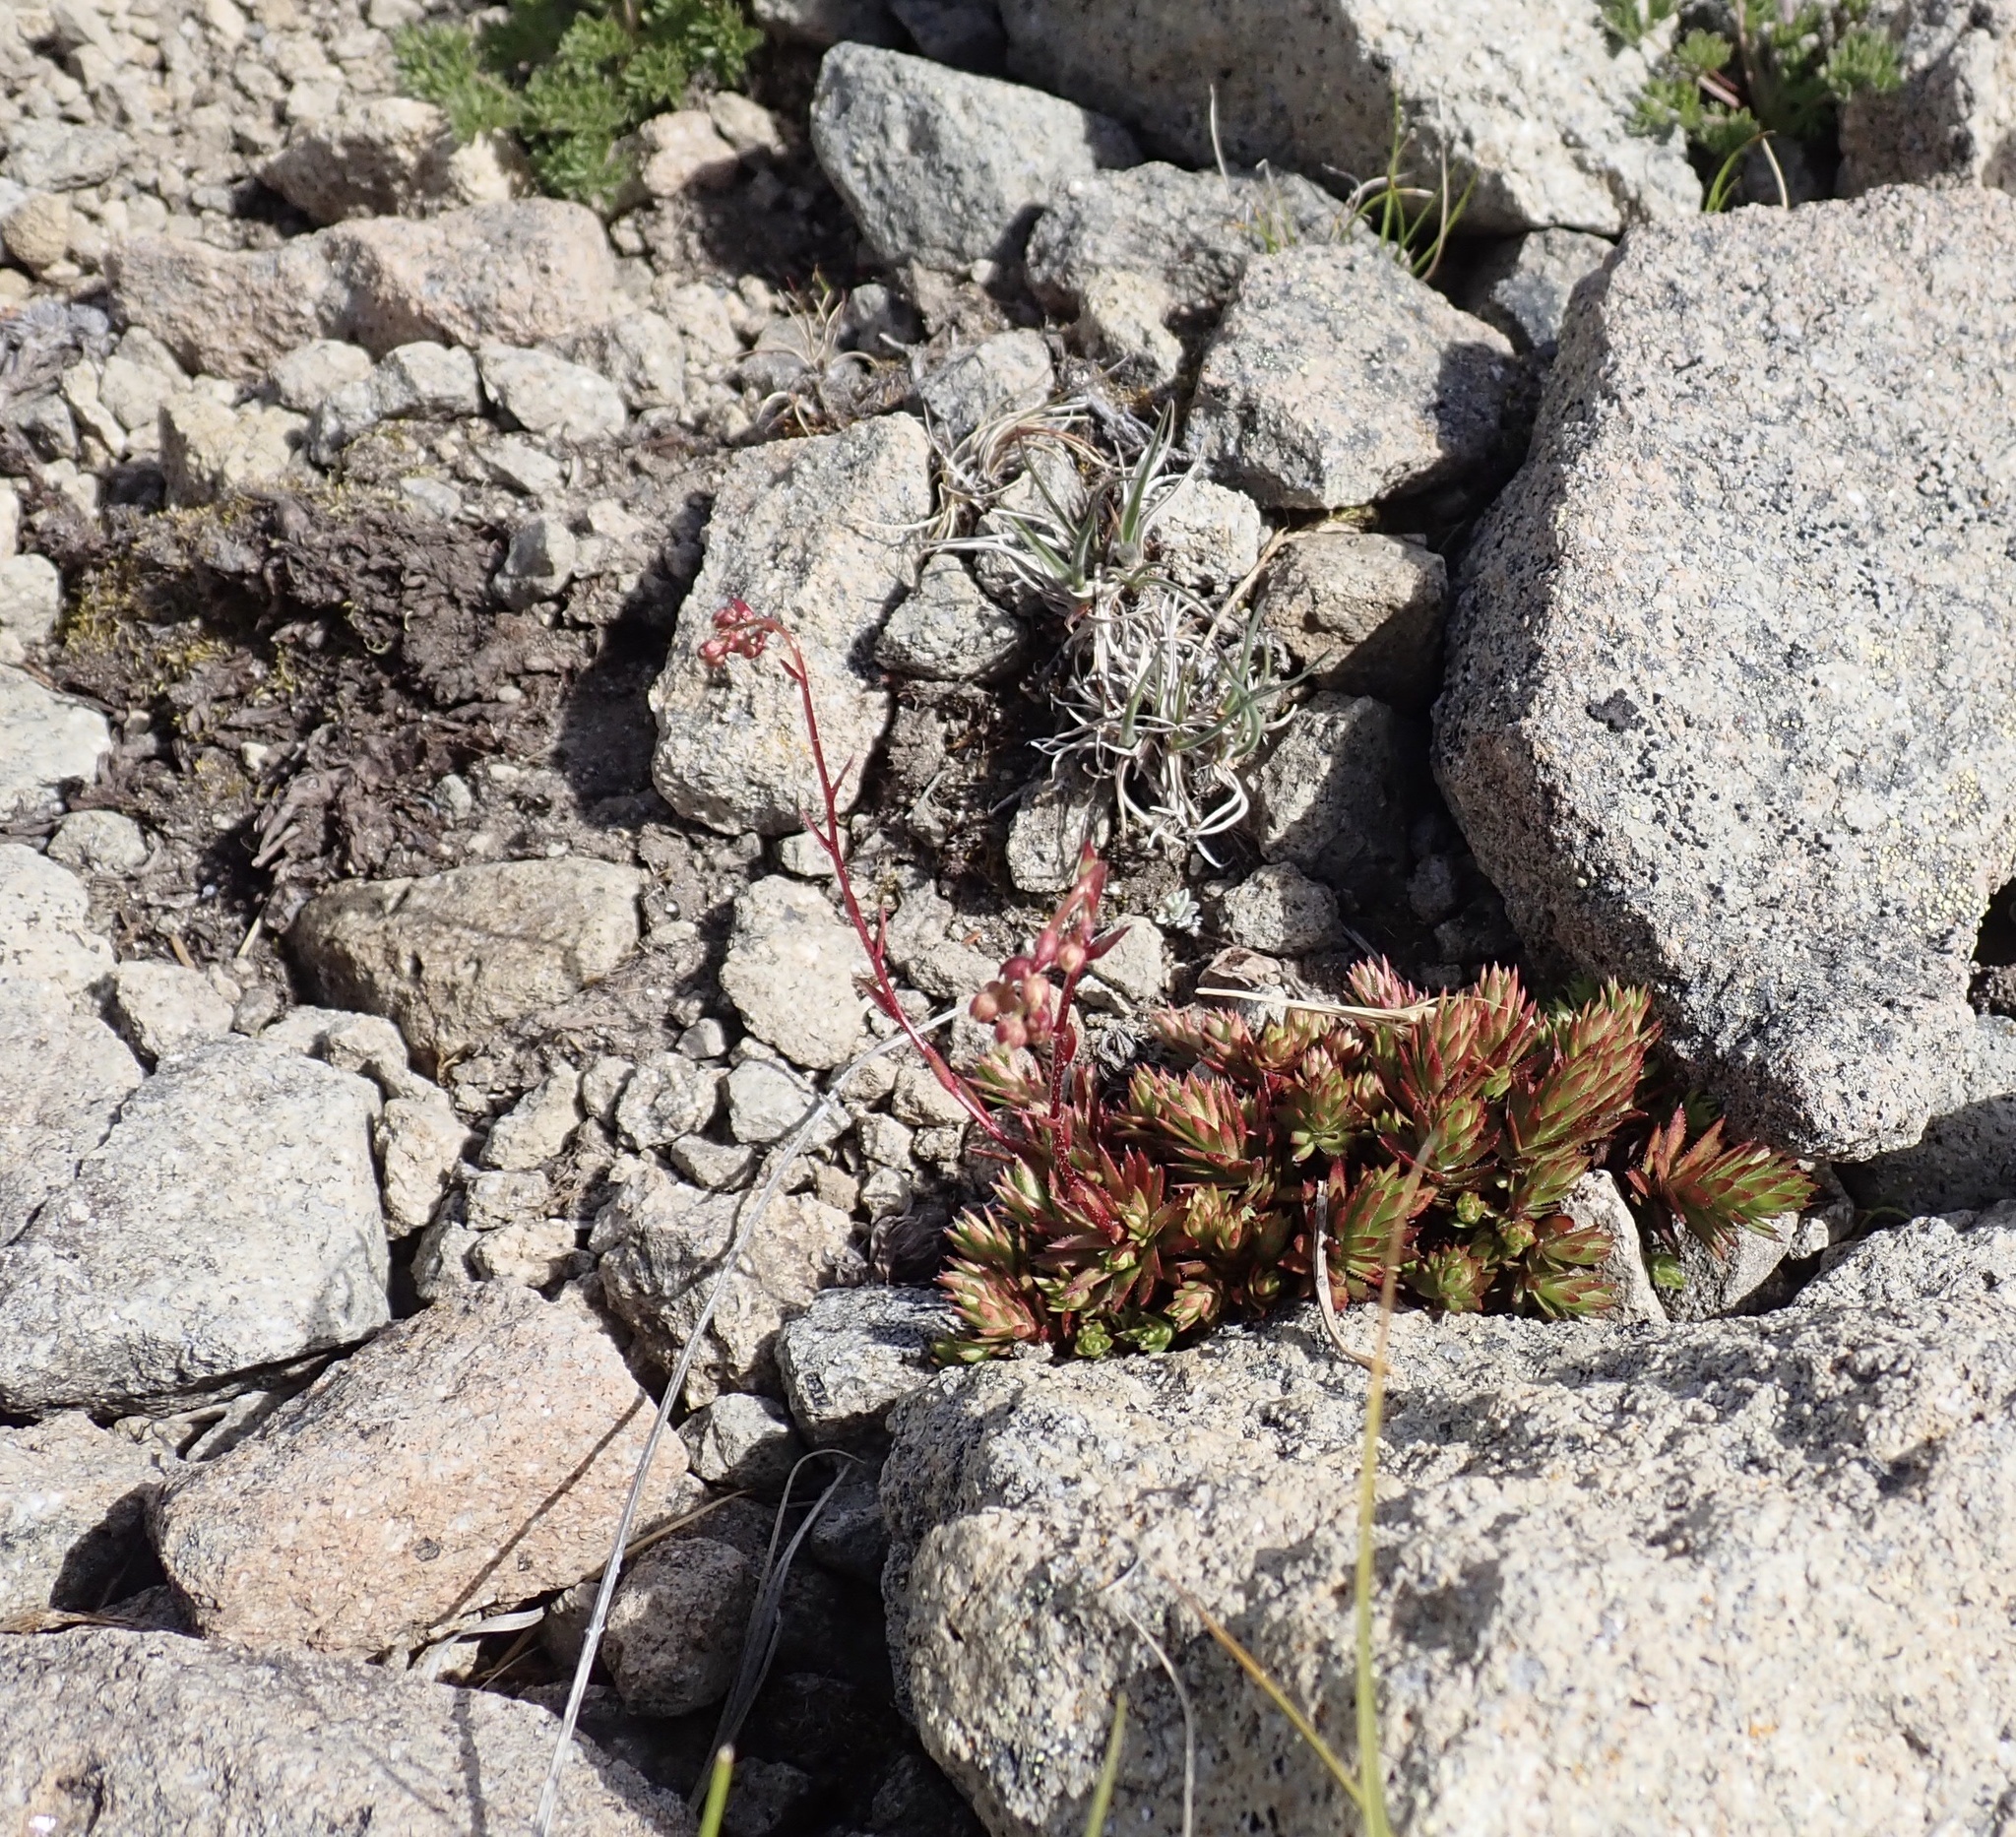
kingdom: Plantae
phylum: Tracheophyta
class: Magnoliopsida
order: Saxifragales
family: Saxifragaceae
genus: Saxifraga
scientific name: Saxifraga bronchialis
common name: Matted saxifrage
